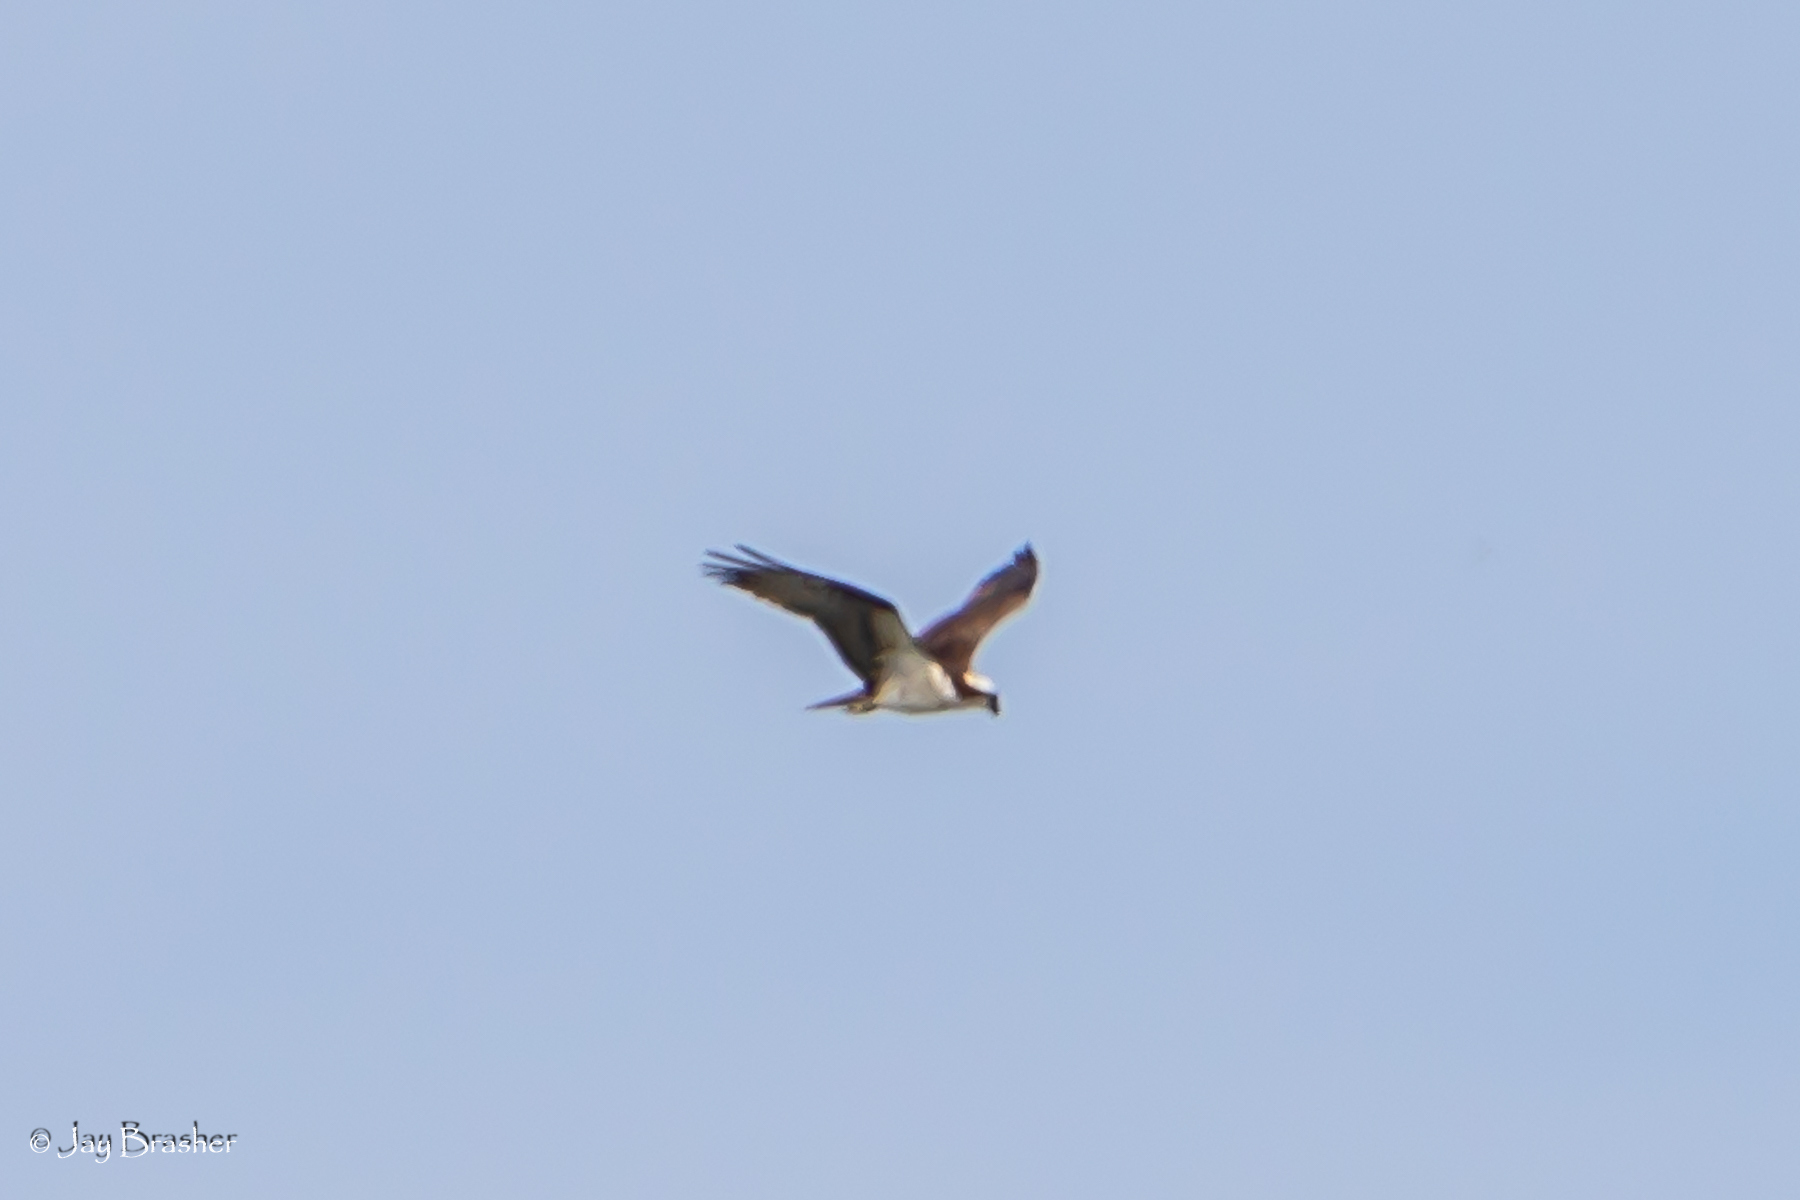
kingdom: Animalia
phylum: Chordata
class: Aves
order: Accipitriformes
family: Pandionidae
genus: Pandion
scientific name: Pandion haliaetus
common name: Osprey
